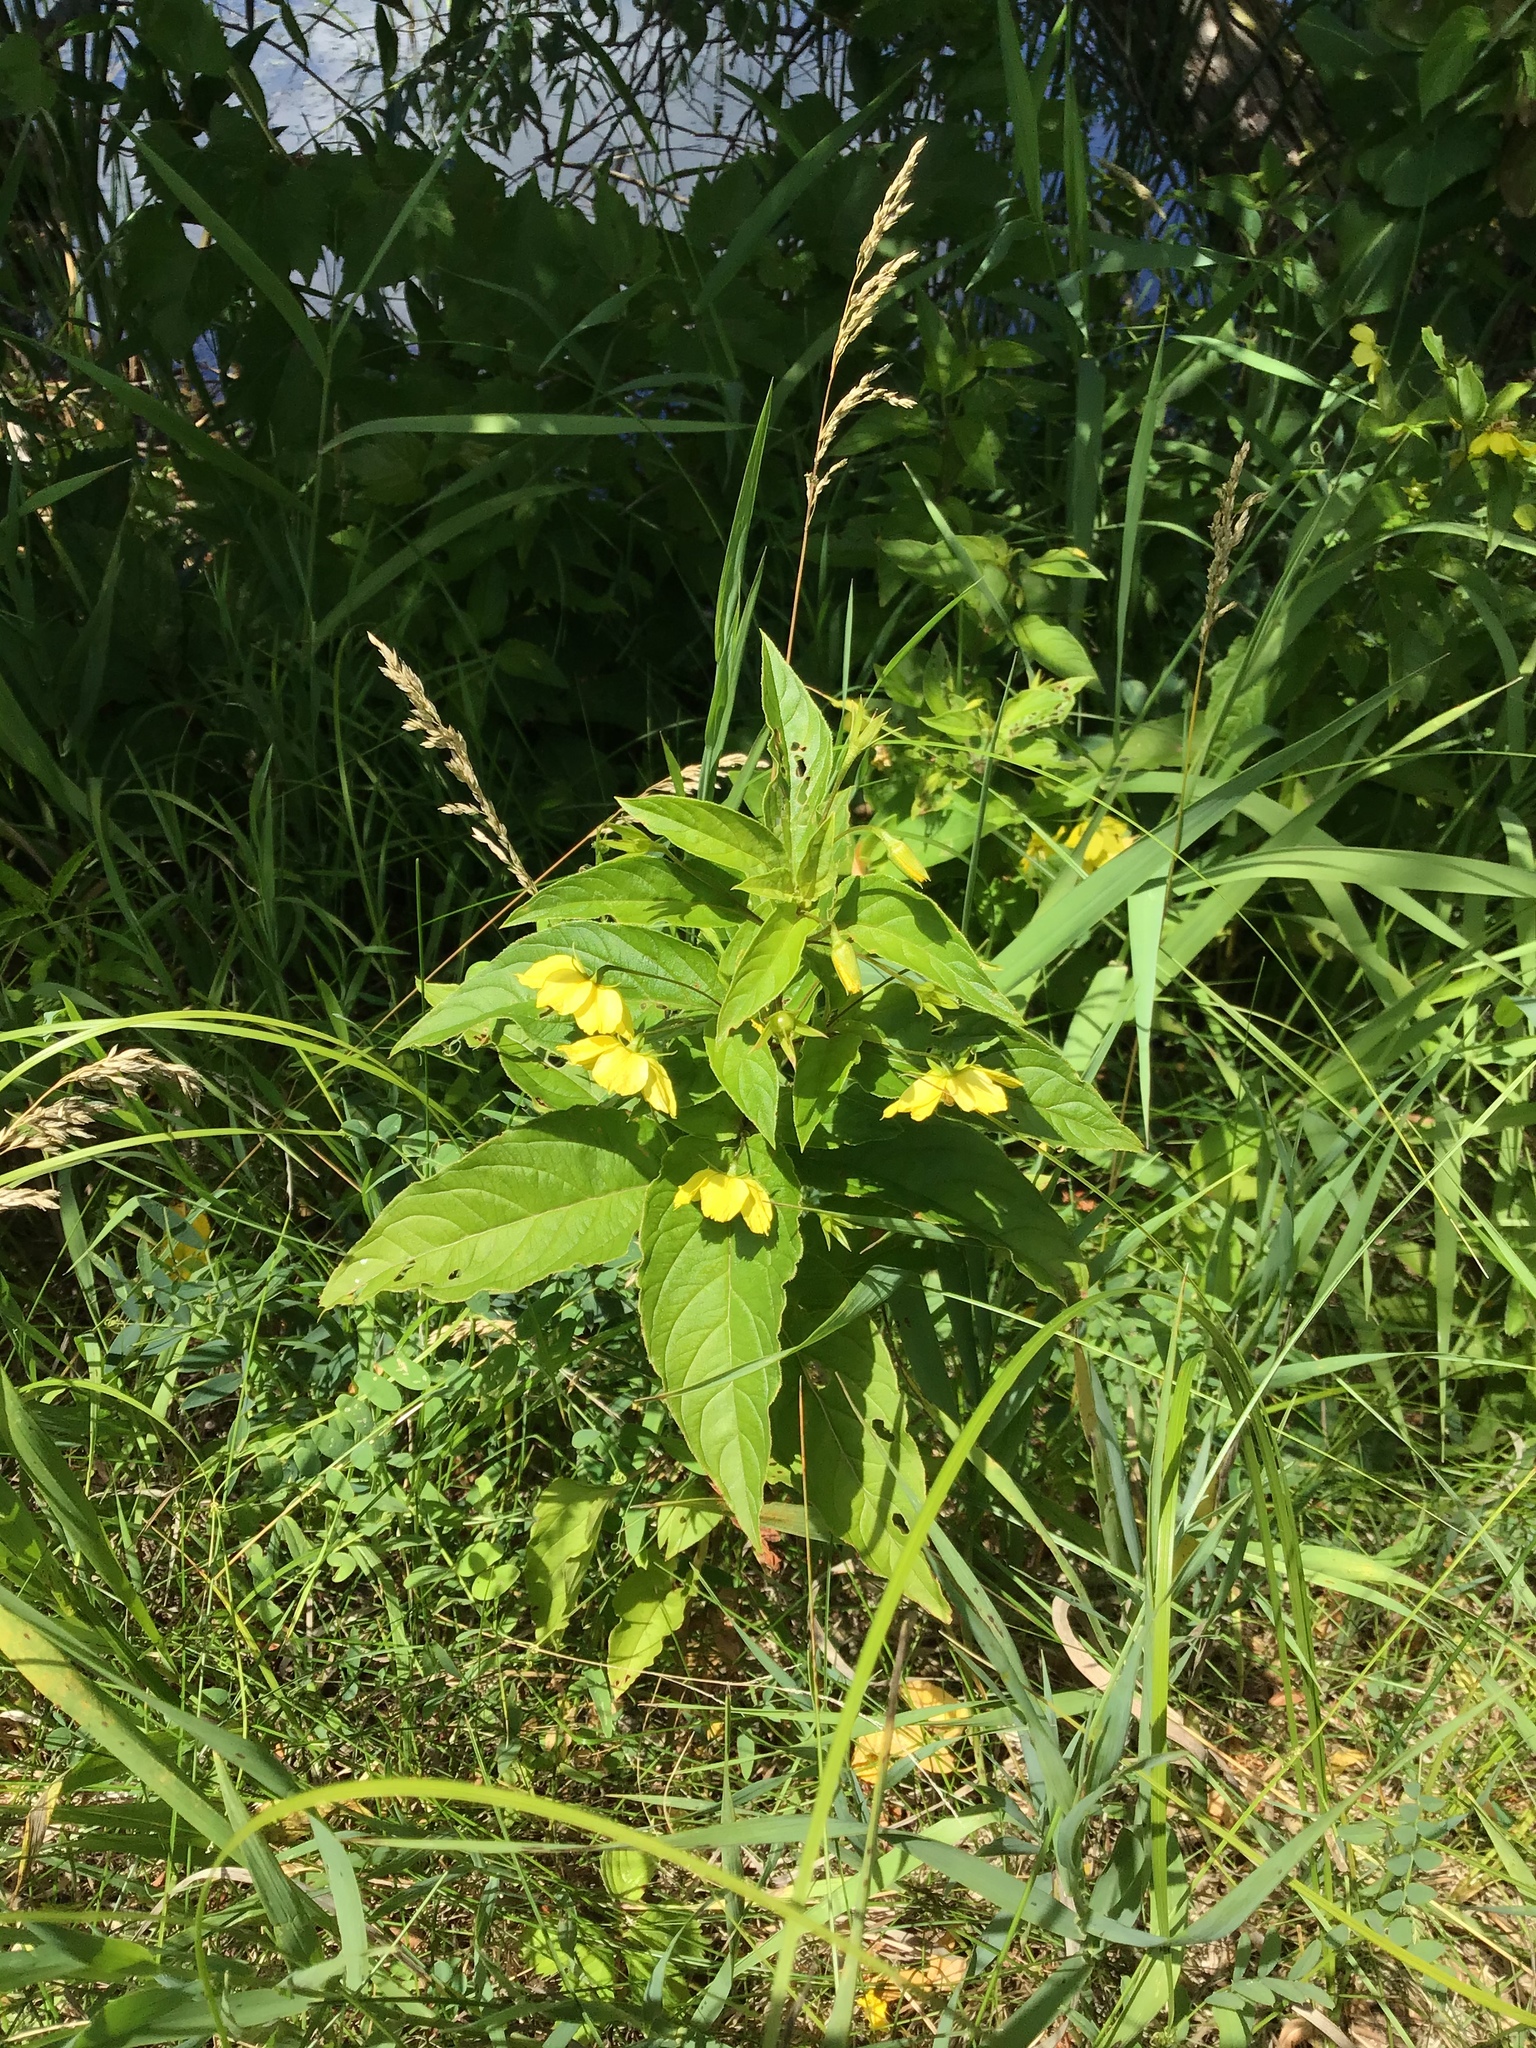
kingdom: Plantae
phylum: Tracheophyta
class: Magnoliopsida
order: Ericales
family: Primulaceae
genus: Lysimachia
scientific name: Lysimachia ciliata
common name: Fringed loosestrife
